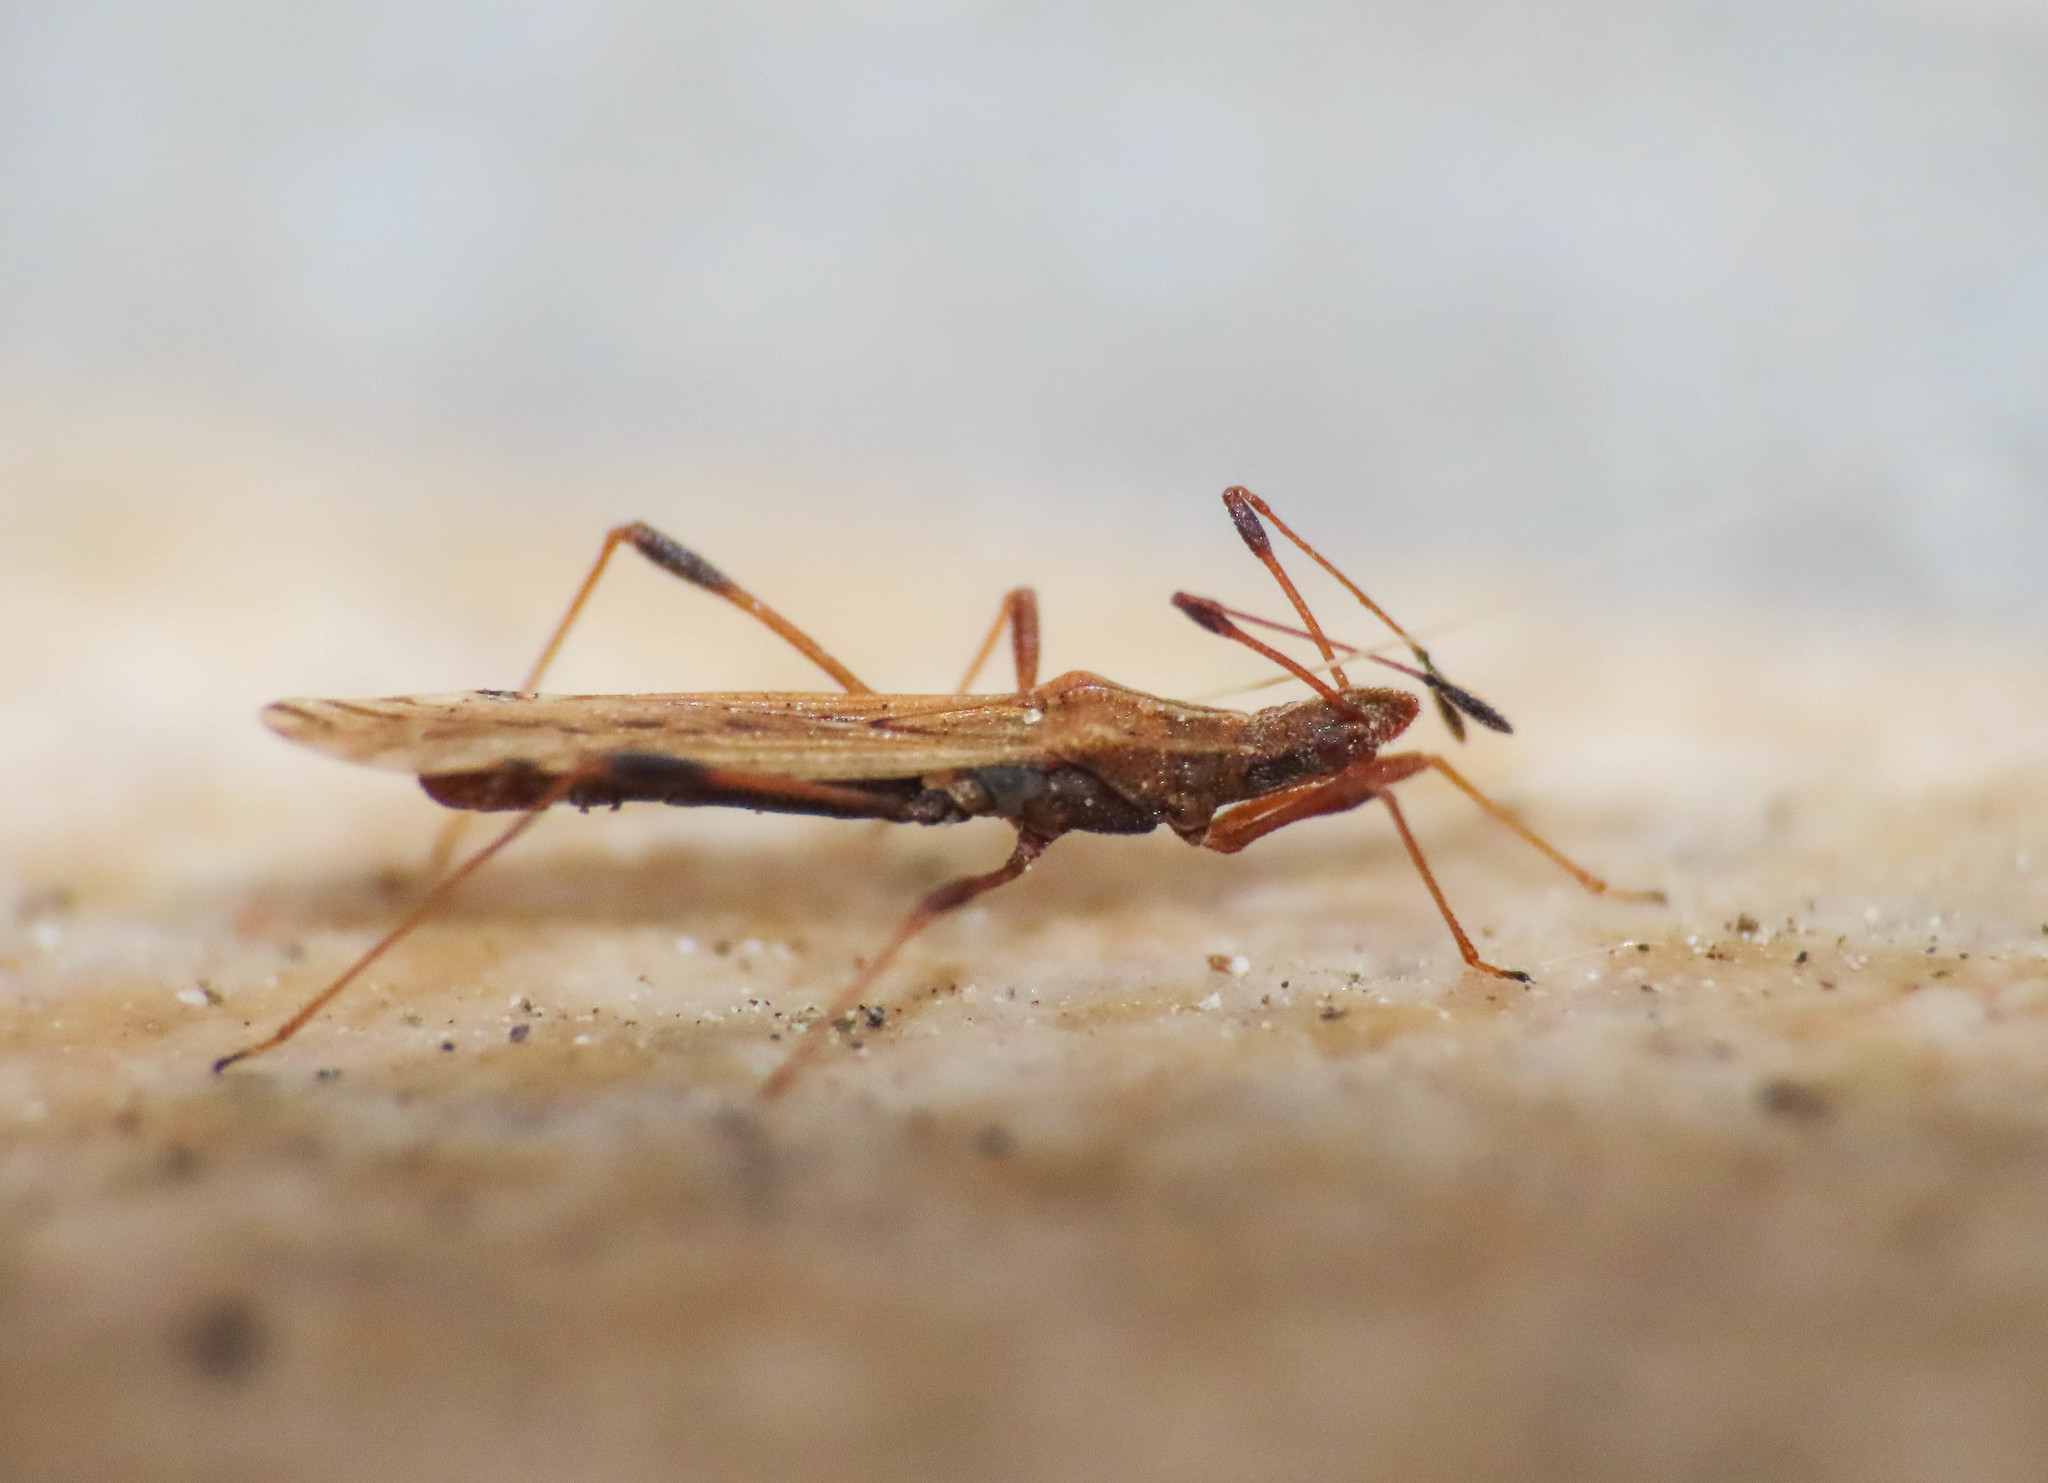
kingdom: Animalia
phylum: Arthropoda
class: Insecta
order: Hemiptera
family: Berytidae
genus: Berytinus
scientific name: Berytinus montivagus
